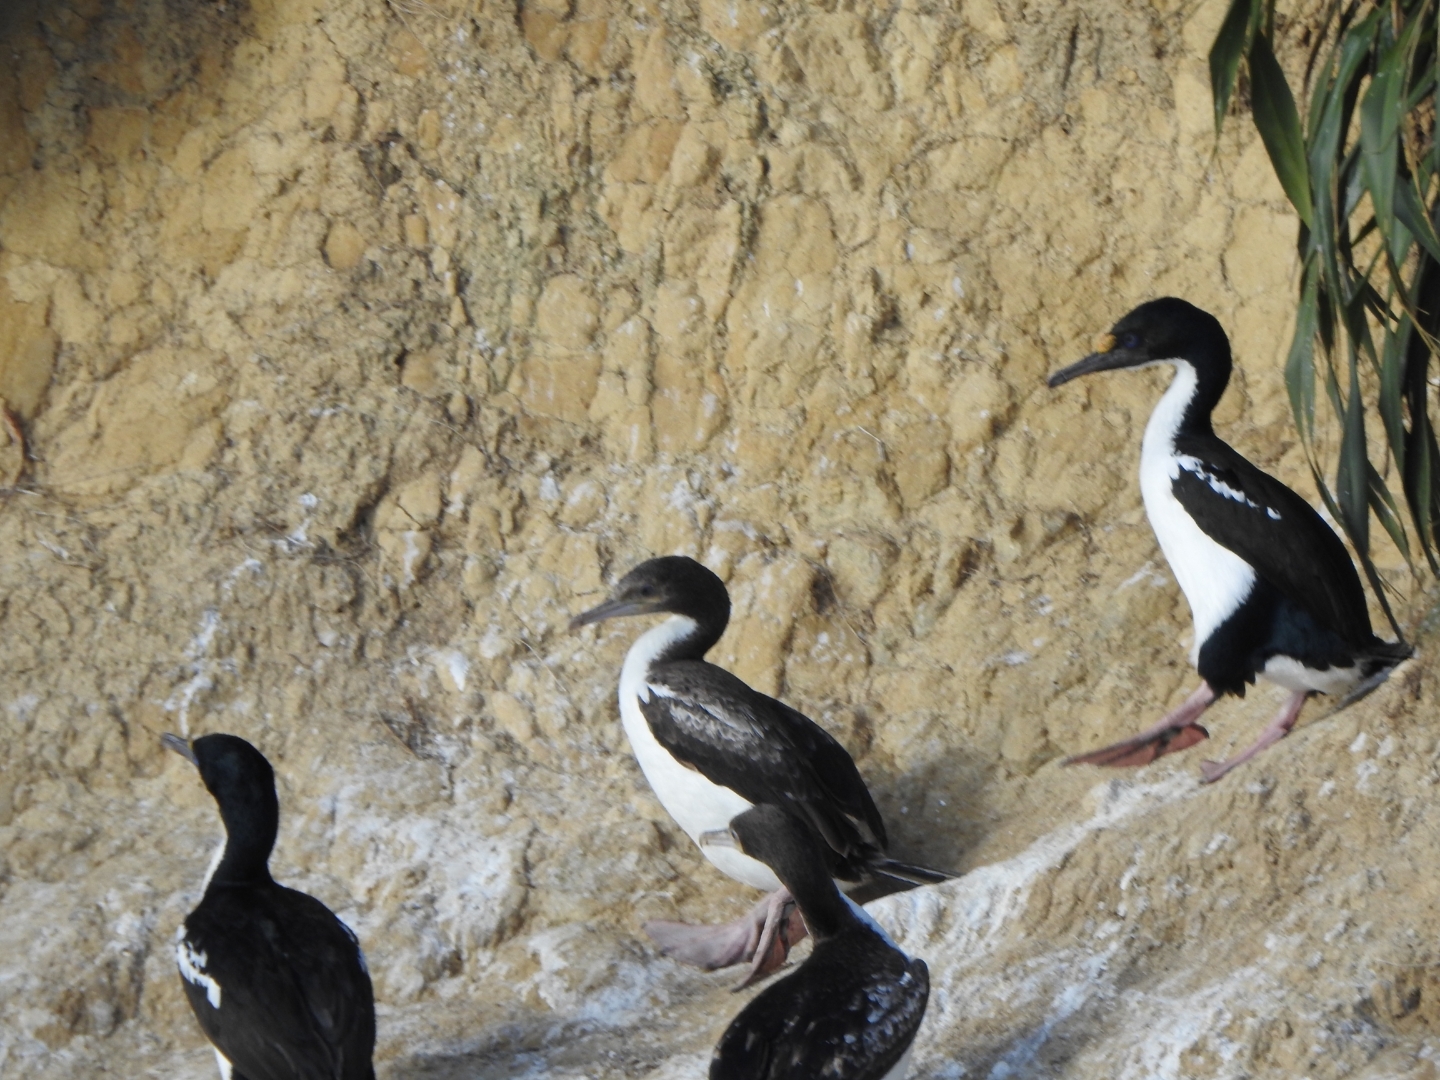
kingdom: Animalia
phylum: Chordata
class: Aves
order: Suliformes
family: Phalacrocoracidae
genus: Leucocarbo
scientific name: Leucocarbo carunculatus
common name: Rough-faced shag
